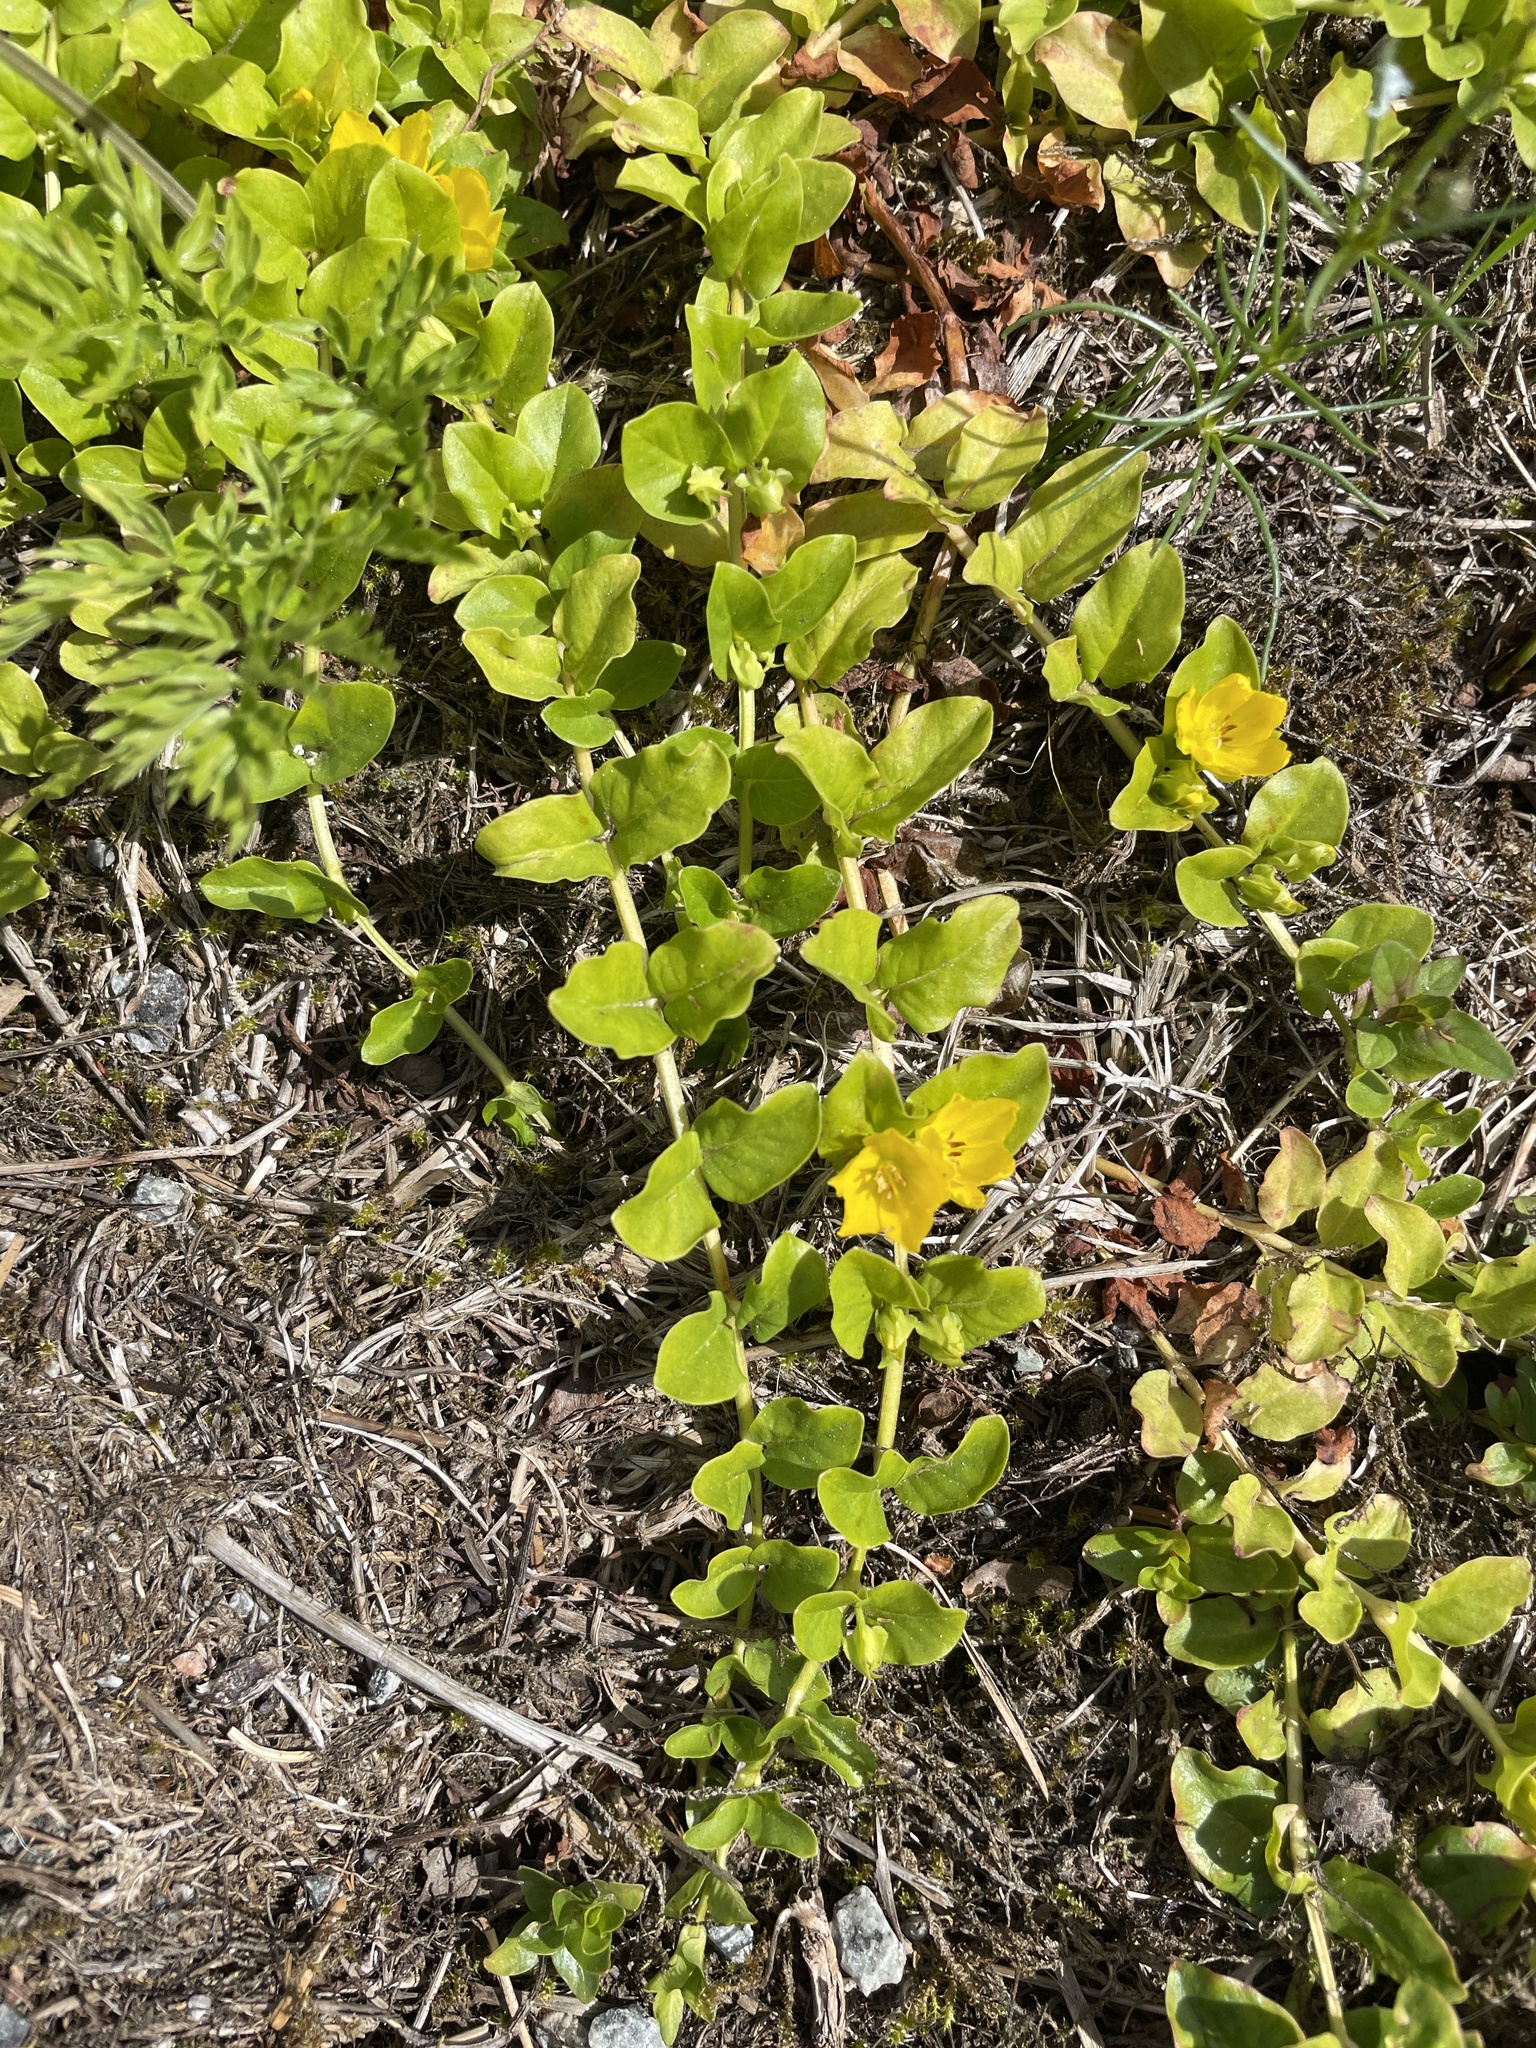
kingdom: Plantae
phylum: Tracheophyta
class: Magnoliopsida
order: Ericales
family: Primulaceae
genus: Lysimachia
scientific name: Lysimachia nummularia
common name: Moneywort
